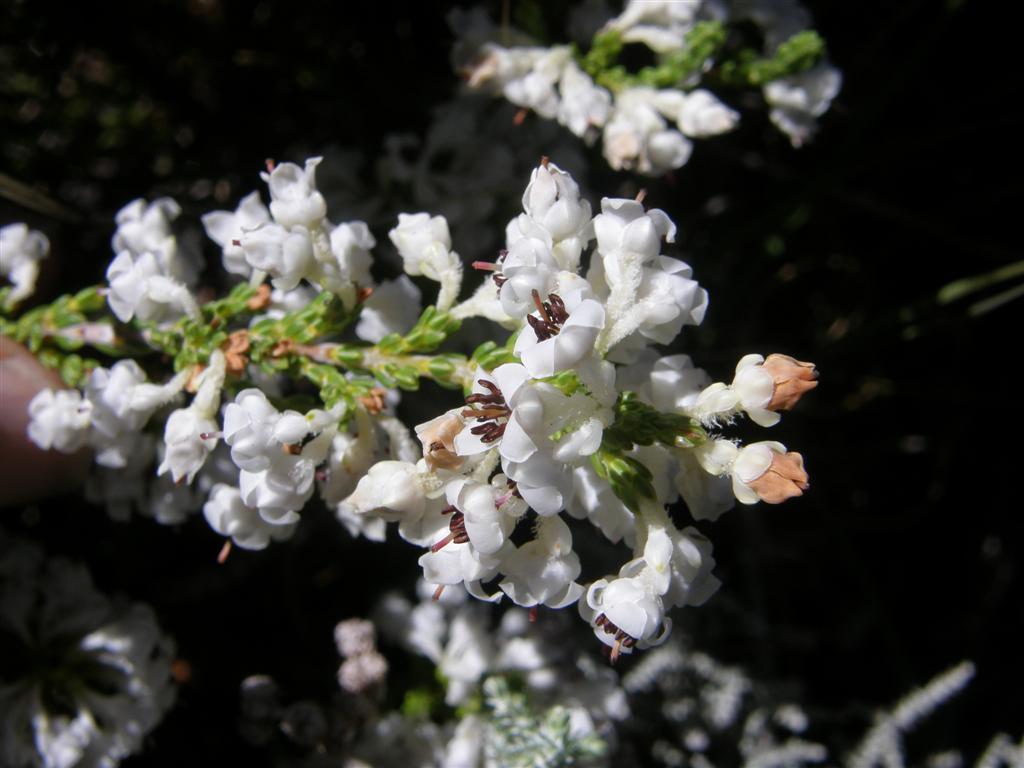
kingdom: Plantae
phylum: Tracheophyta
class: Magnoliopsida
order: Ericales
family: Ericaceae
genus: Erica
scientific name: Erica calycina
